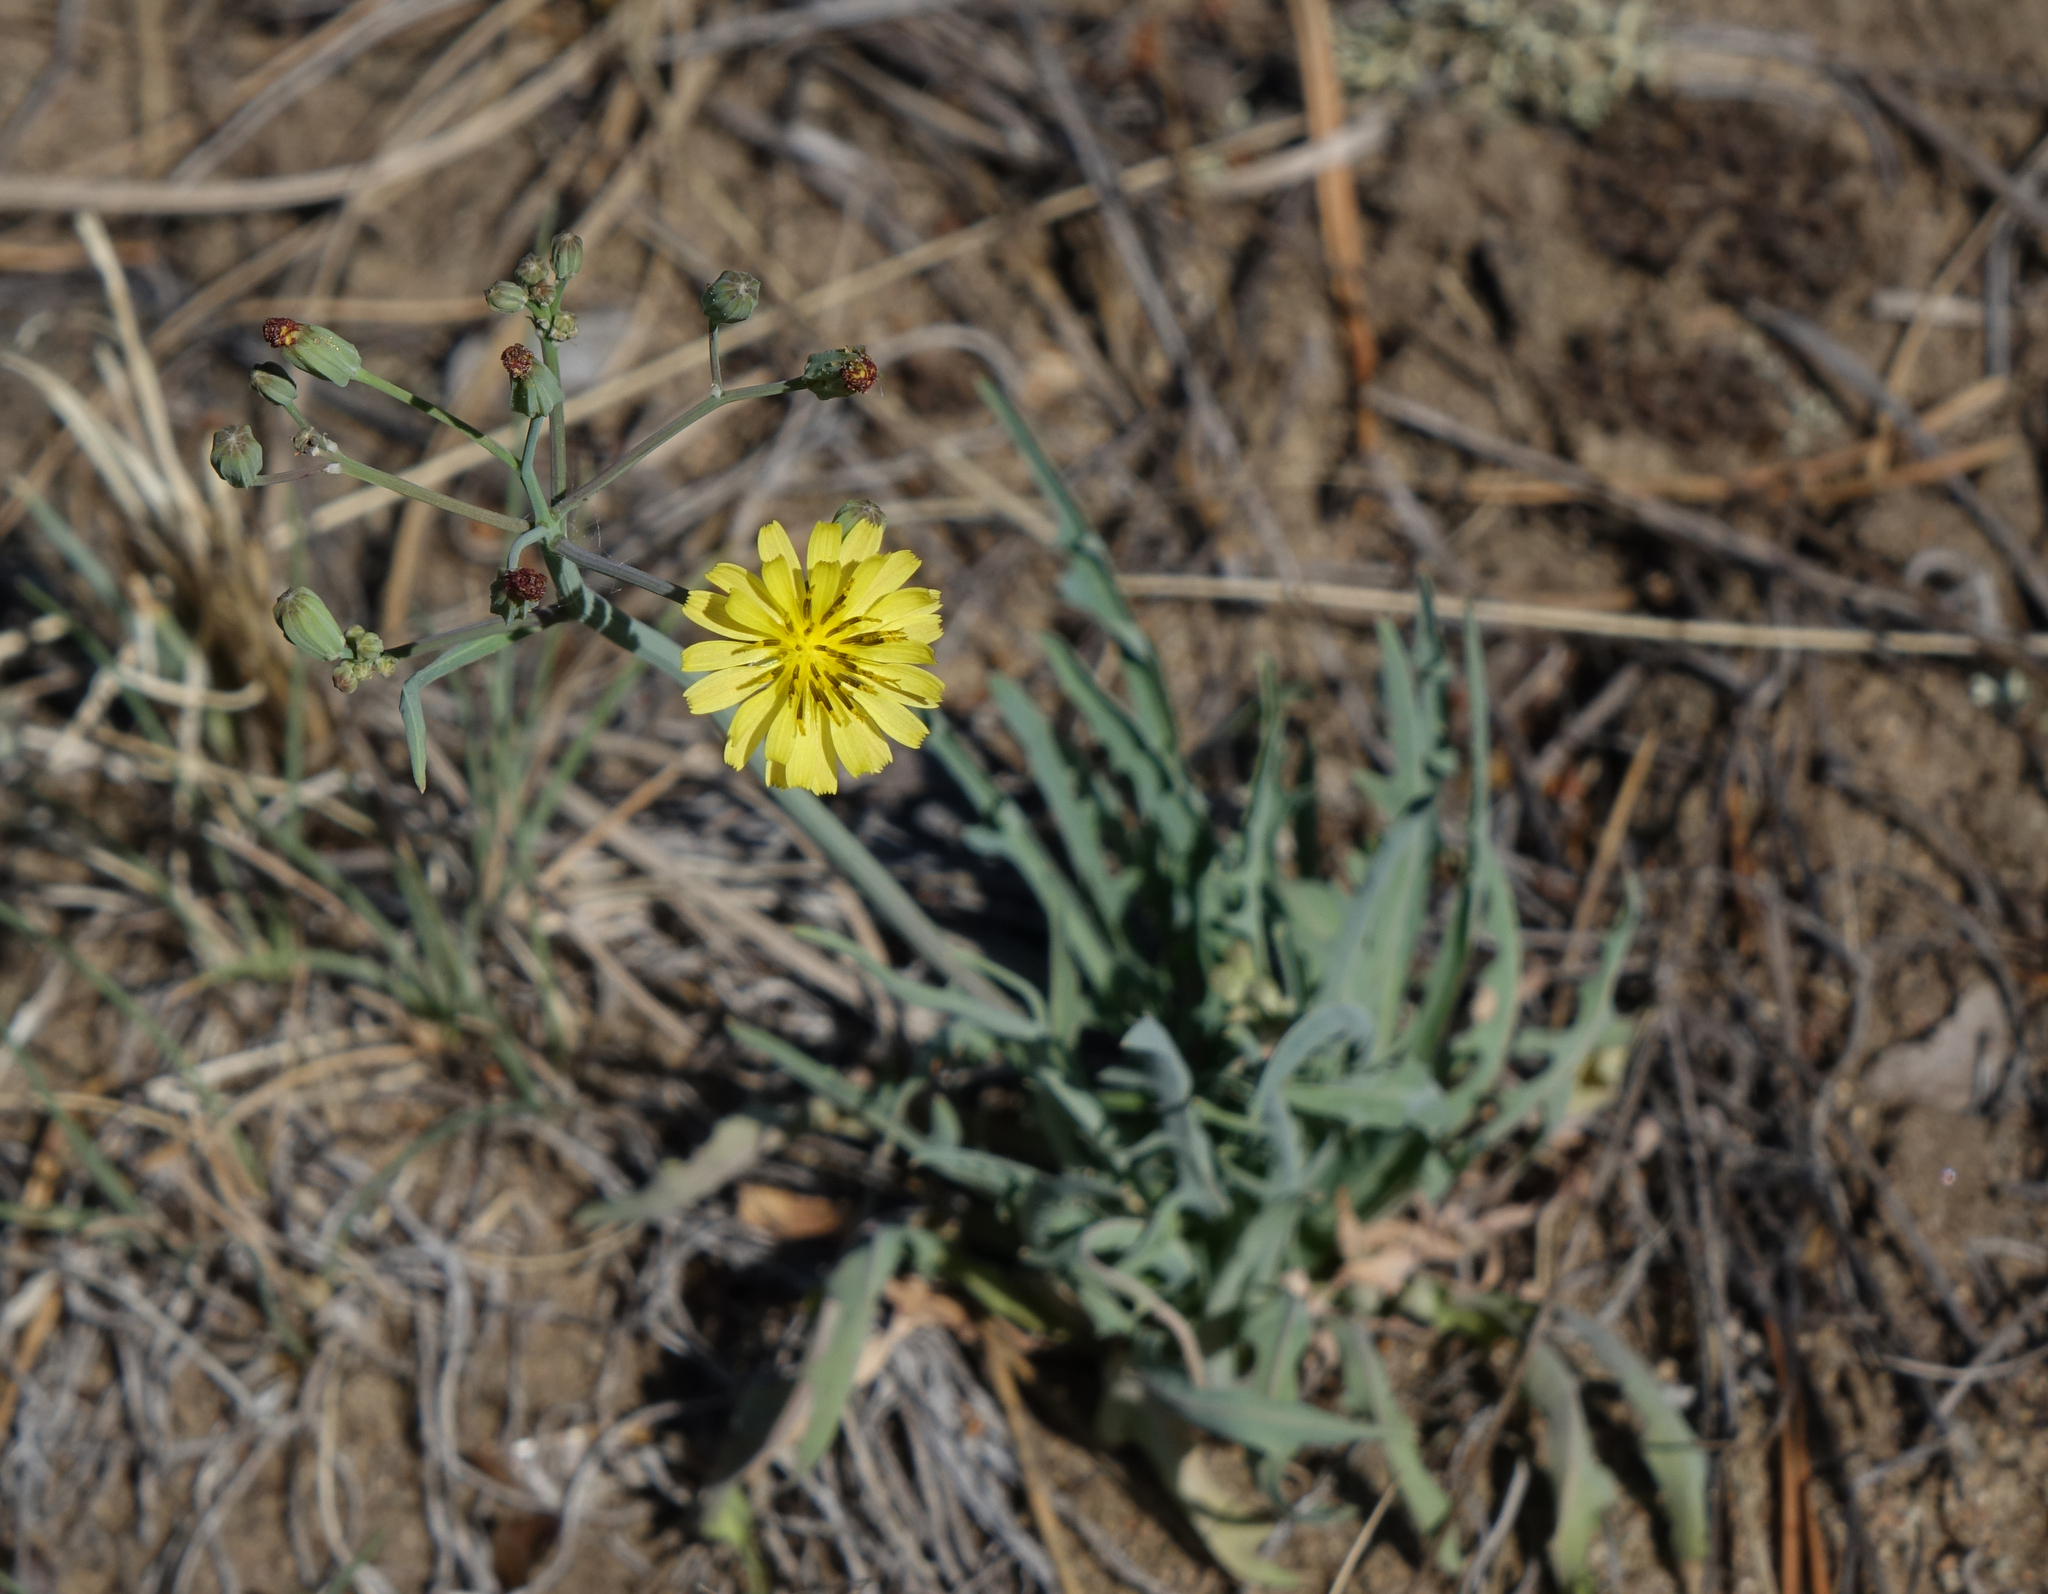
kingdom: Plantae
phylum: Tracheophyta
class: Magnoliopsida
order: Asterales
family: Asteraceae
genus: Ixeris
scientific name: Ixeris chinensis
